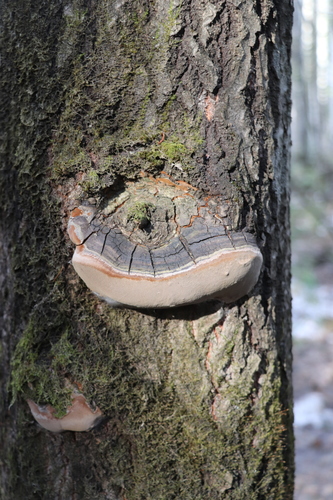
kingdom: Fungi
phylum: Basidiomycota
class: Agaricomycetes
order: Hymenochaetales
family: Hymenochaetaceae
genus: Phellinus
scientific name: Phellinus tremulae
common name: Aspen bracket
